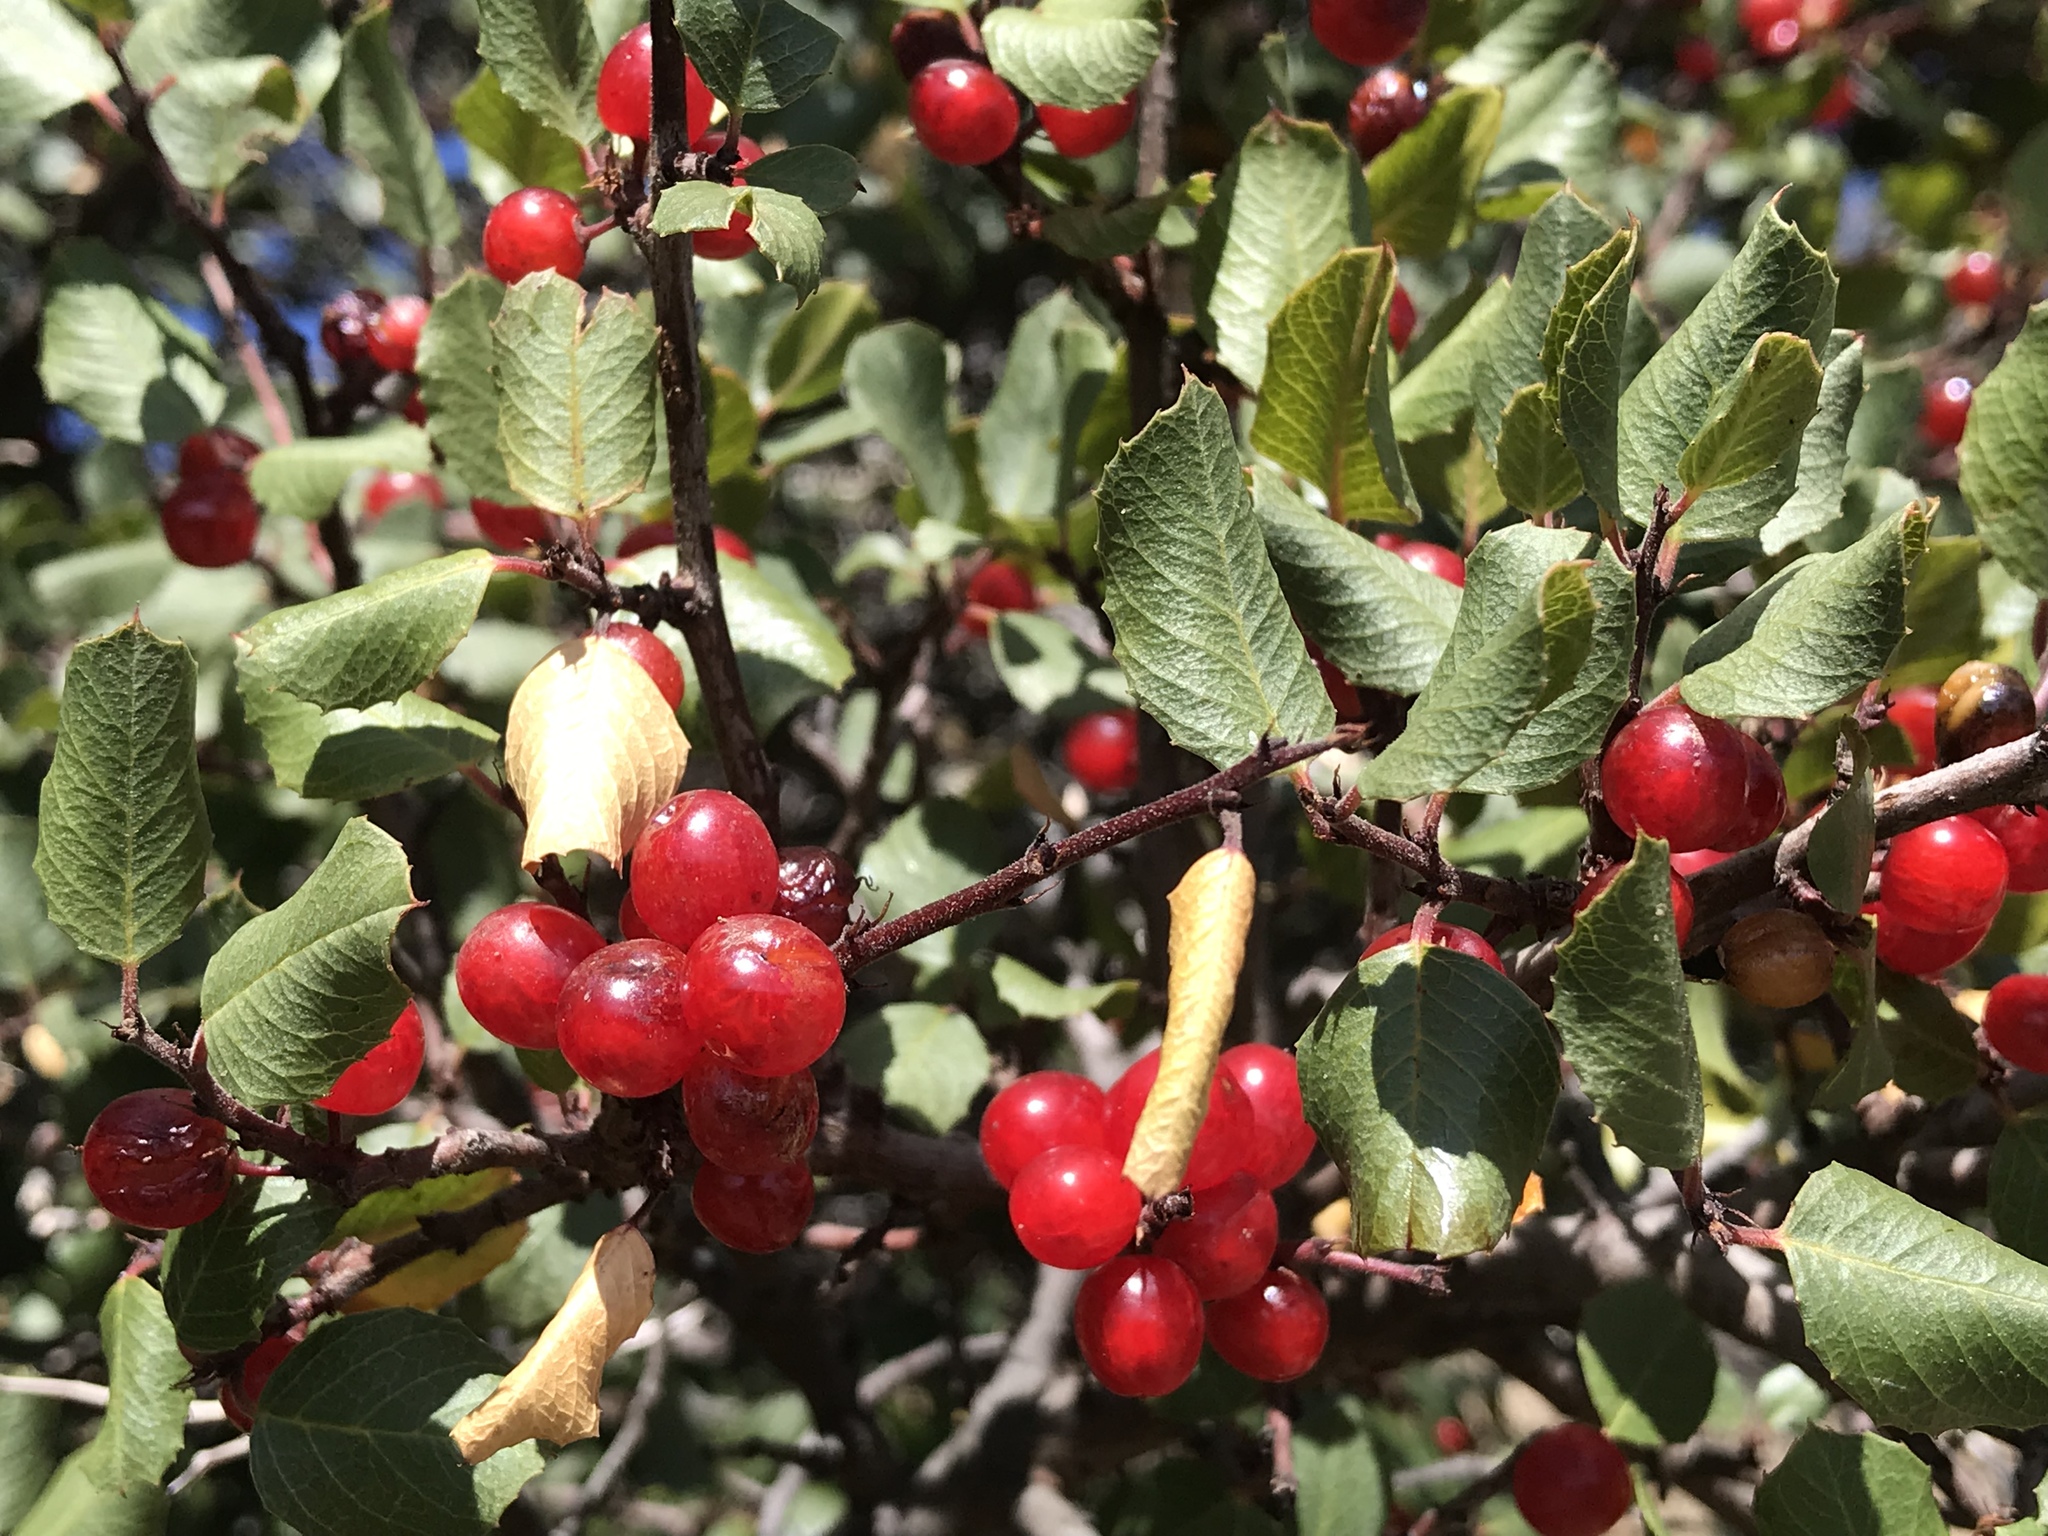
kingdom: Plantae
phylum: Tracheophyta
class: Magnoliopsida
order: Rosales
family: Rhamnaceae
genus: Endotropis
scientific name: Endotropis crocea
